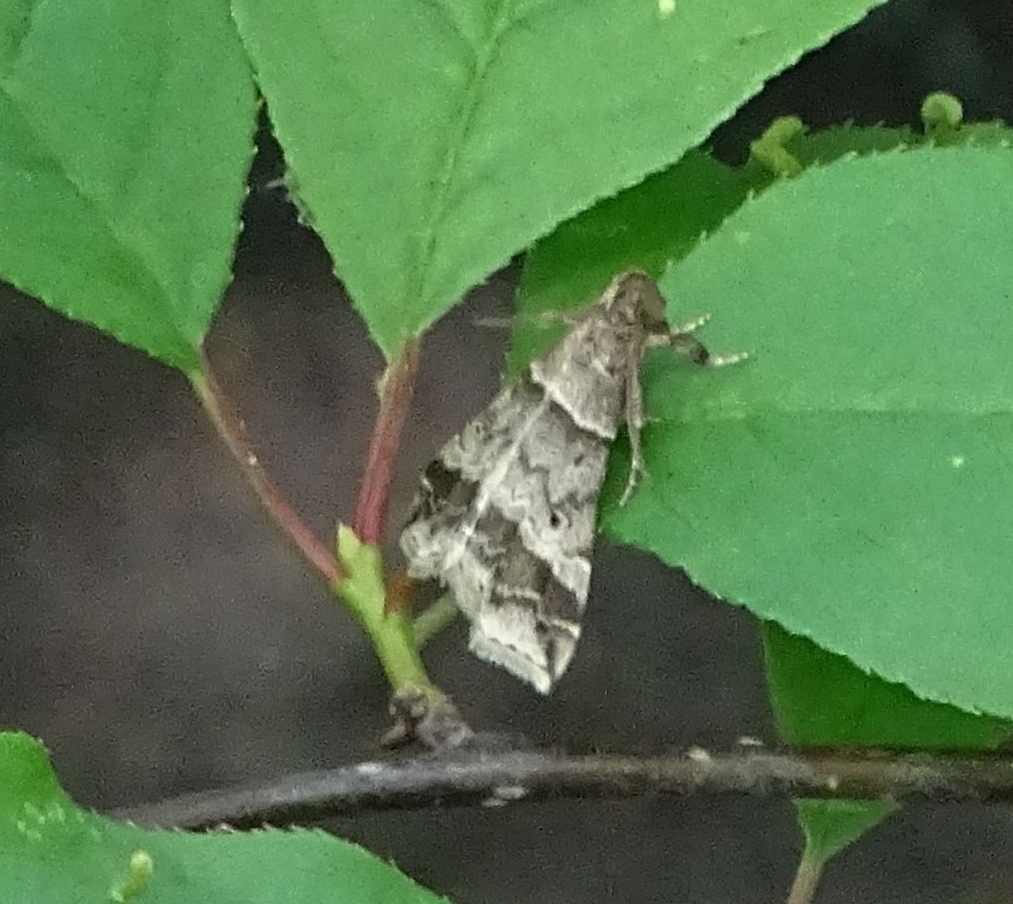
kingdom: Animalia
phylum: Arthropoda
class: Insecta
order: Lepidoptera
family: Erebidae
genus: Phaeolita
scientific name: Phaeolita pyramusalis
